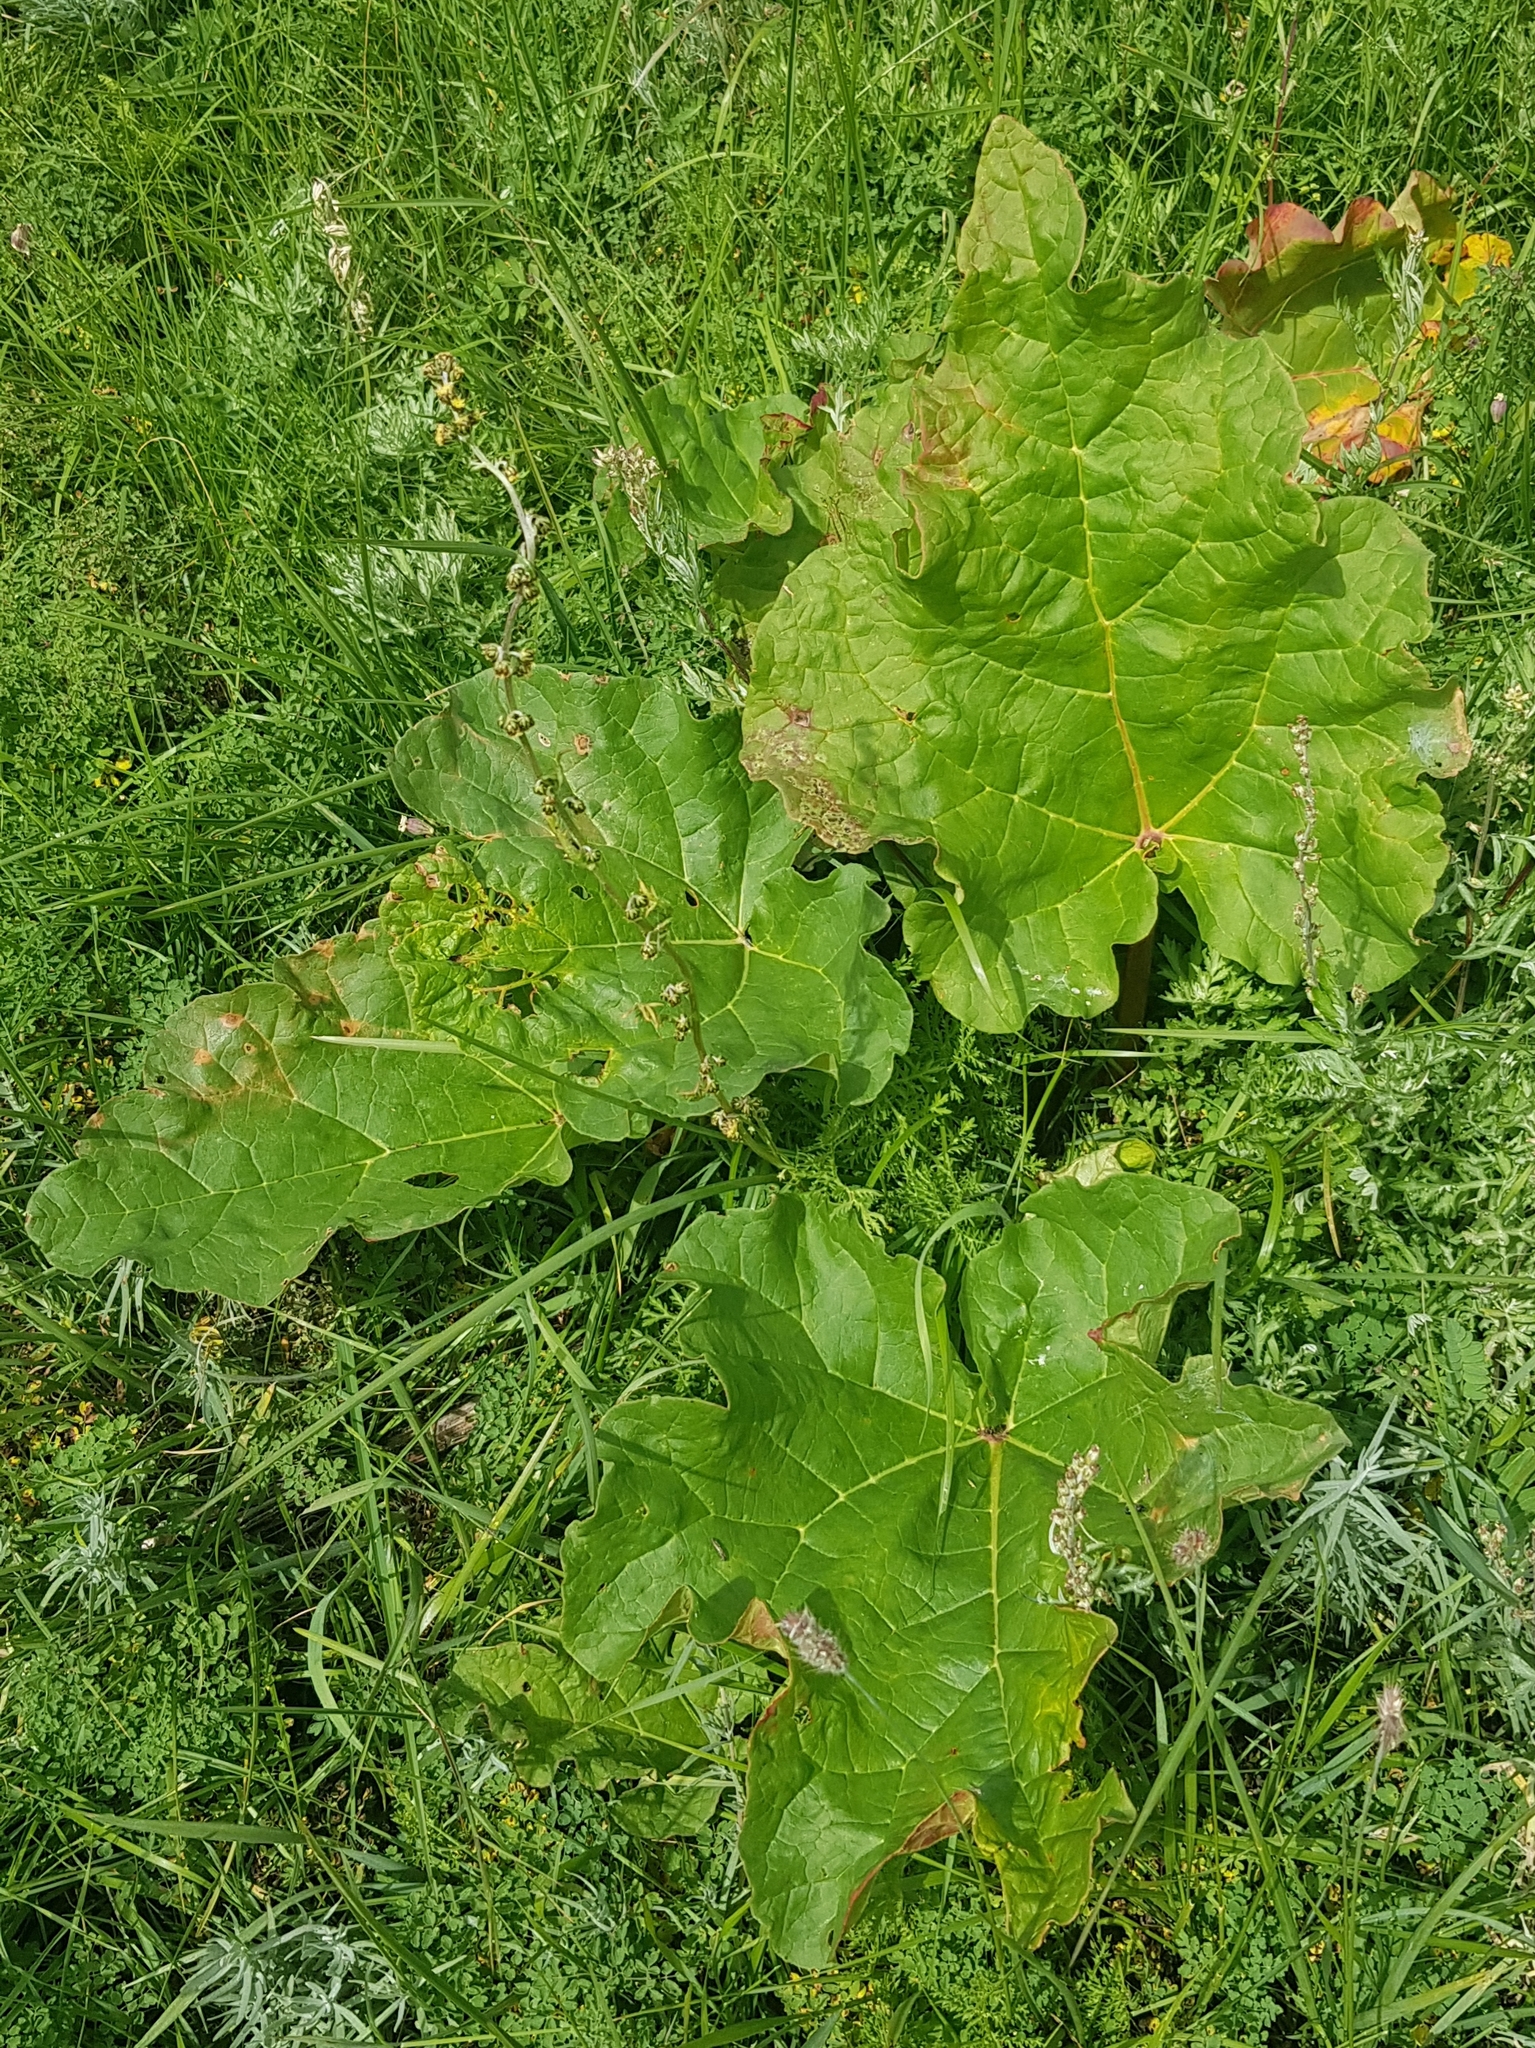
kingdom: Plantae
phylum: Tracheophyta
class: Magnoliopsida
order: Caryophyllales
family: Polygonaceae
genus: Rheum
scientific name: Rheum rhabarbarum
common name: Garden rhubarb
